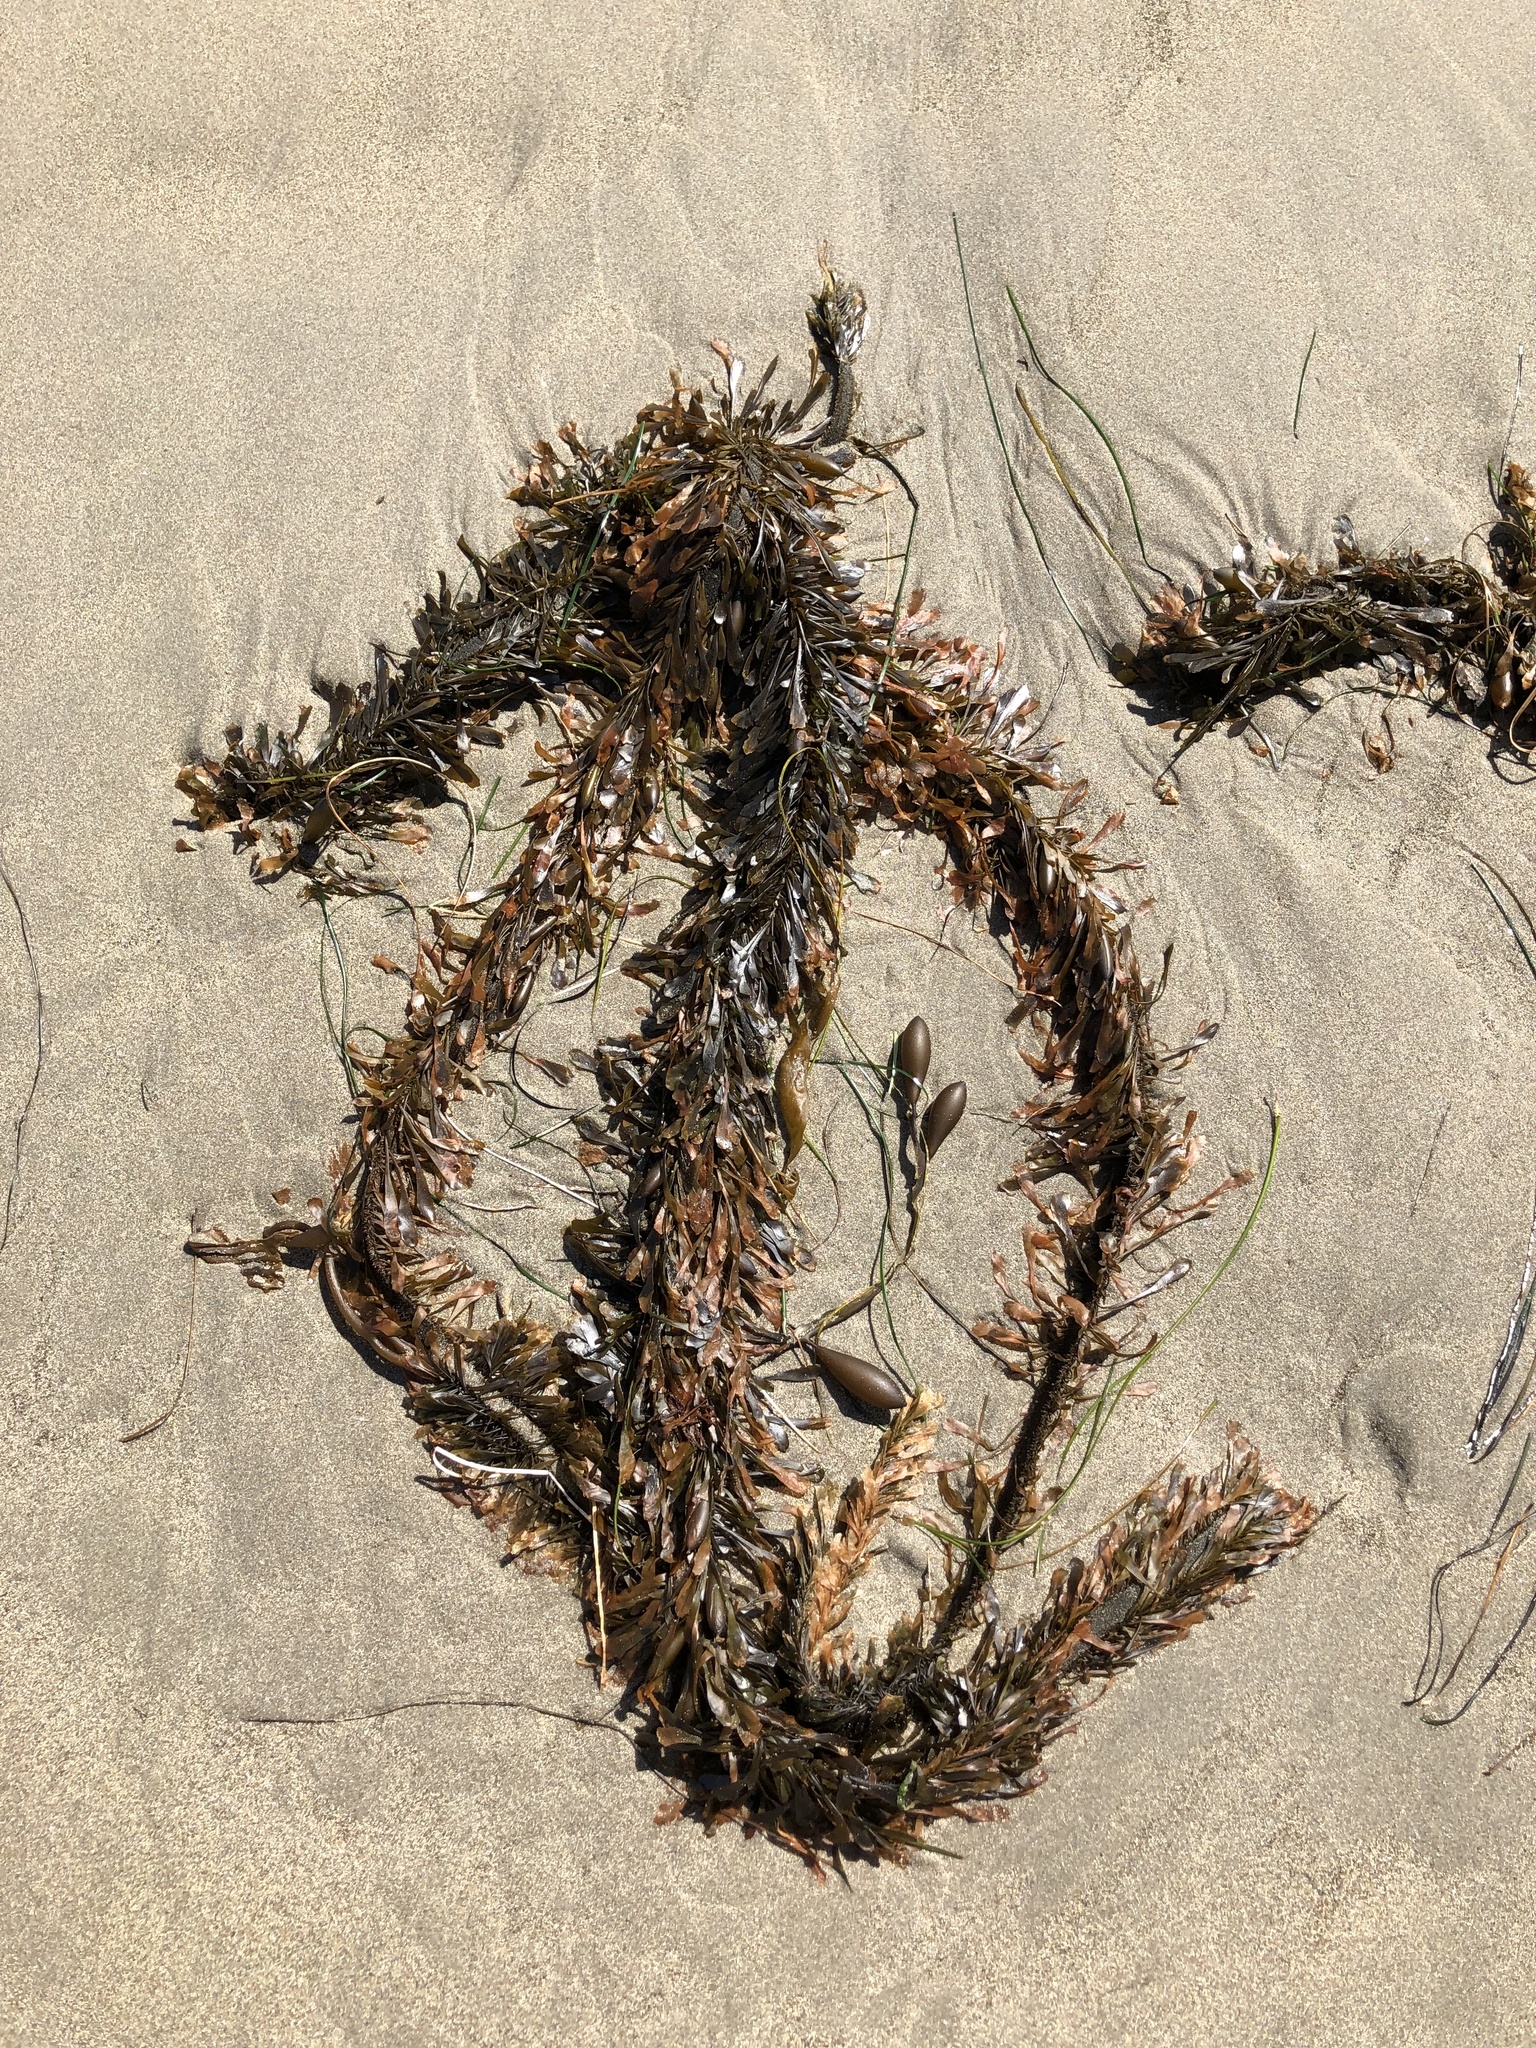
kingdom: Chromista
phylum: Ochrophyta
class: Phaeophyceae
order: Laminariales
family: Lessoniaceae
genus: Egregia
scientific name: Egregia menziesii
